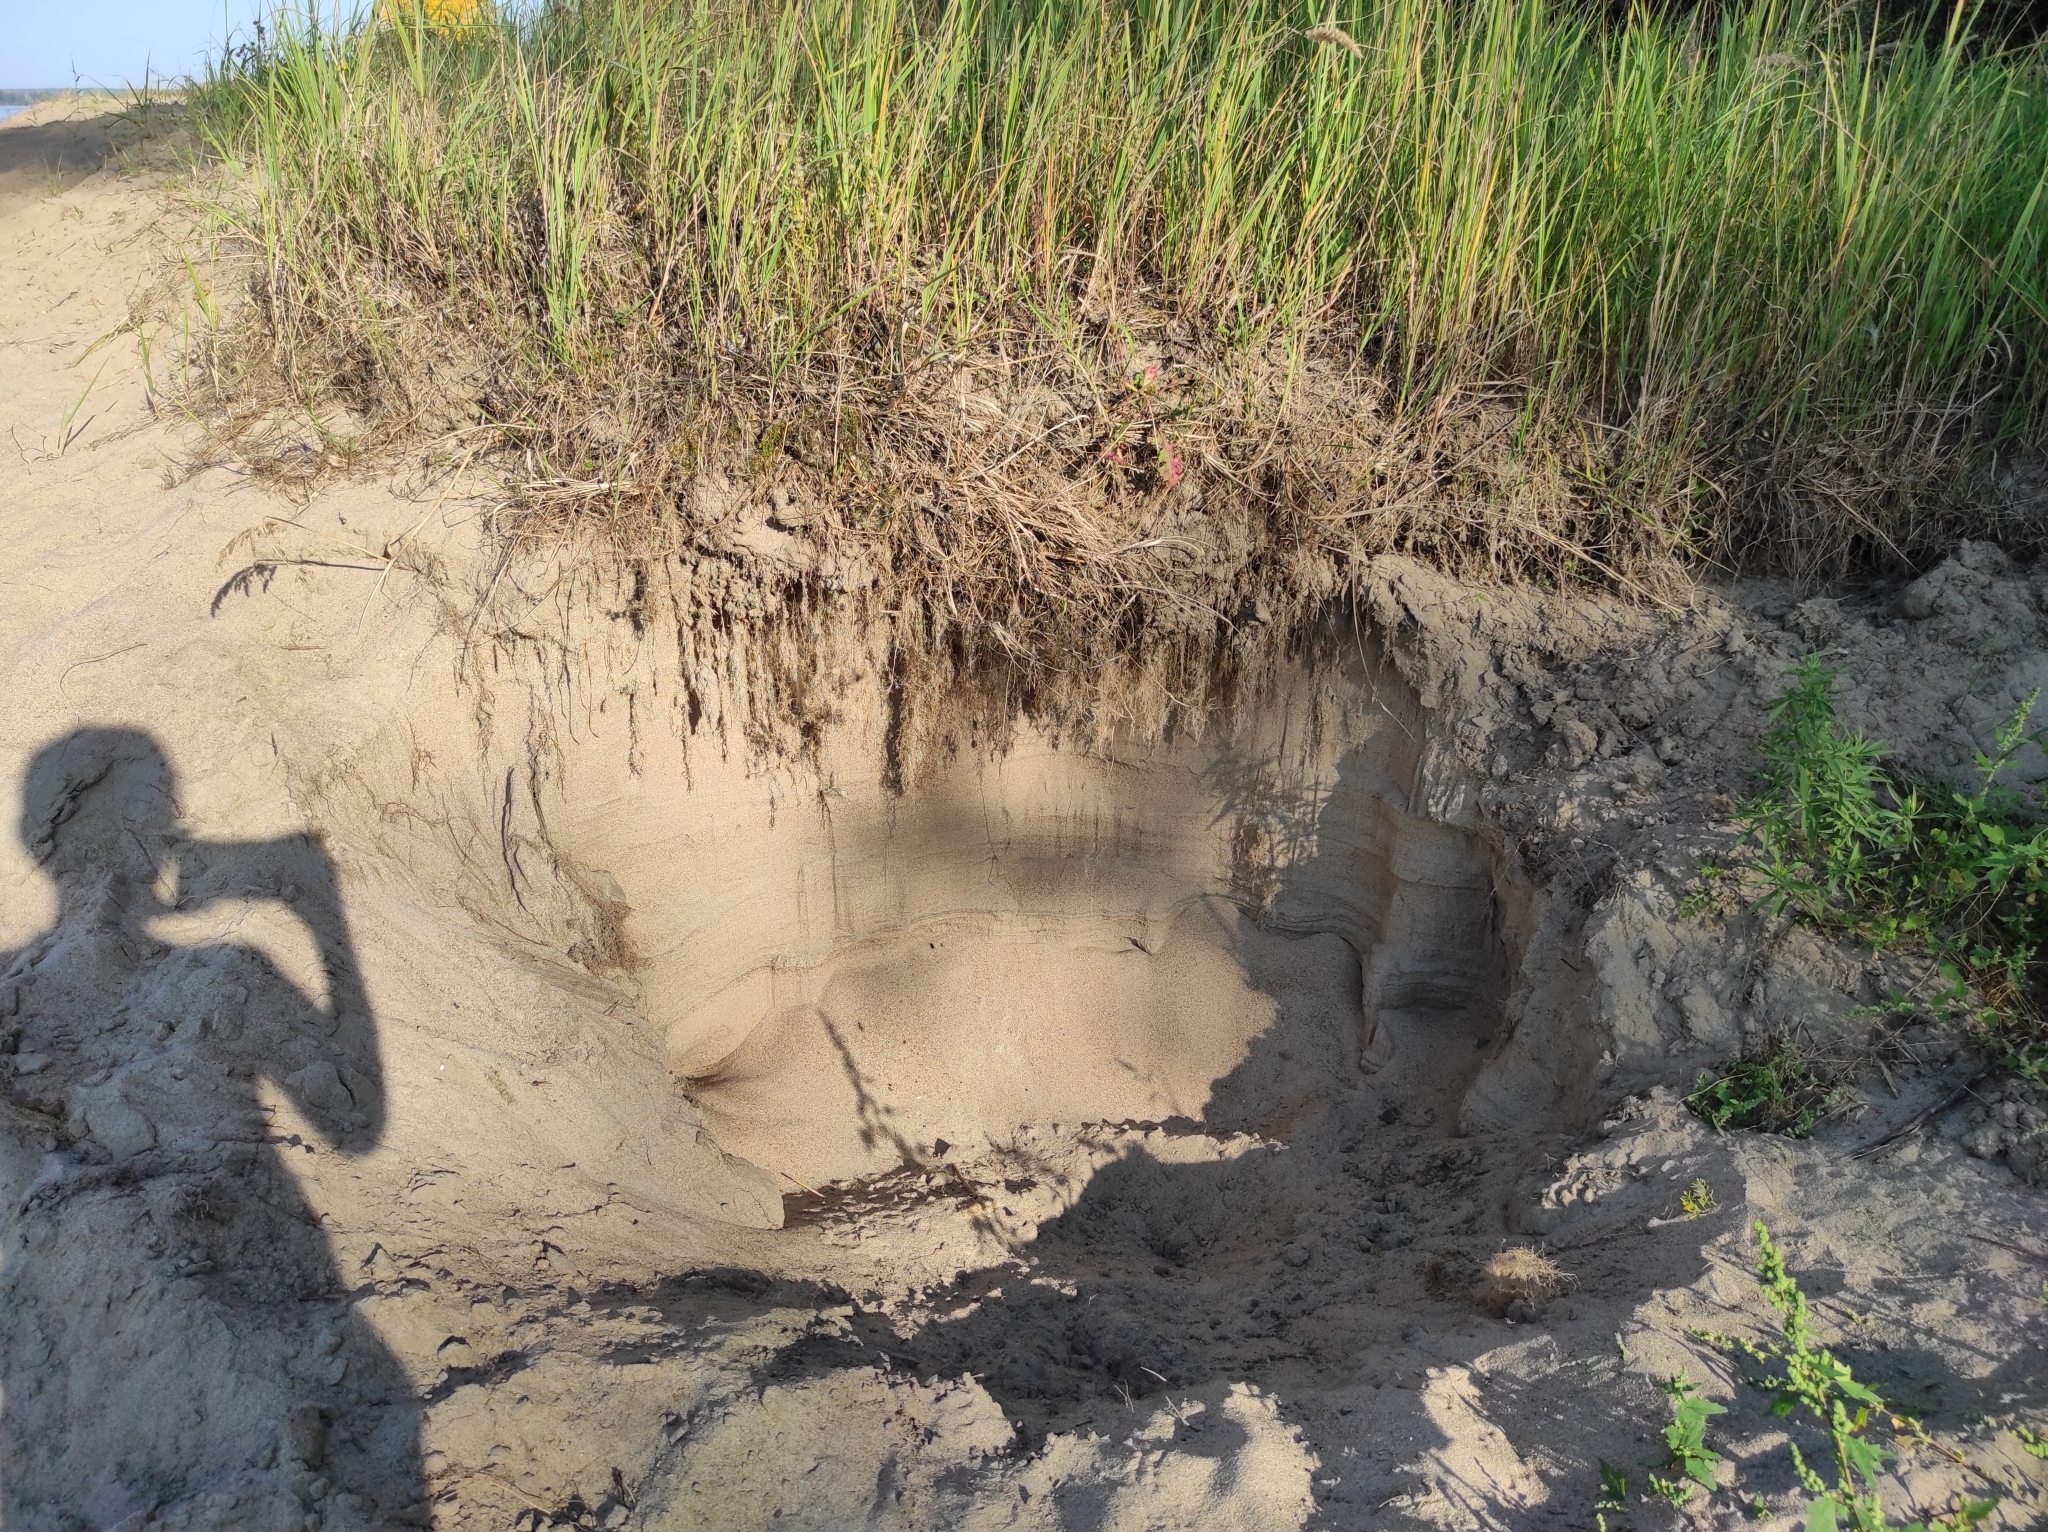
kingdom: Plantae
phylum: Tracheophyta
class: Liliopsida
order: Poales
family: Poaceae
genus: Calamagrostis
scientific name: Calamagrostis epigejos
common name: Wood small-reed
